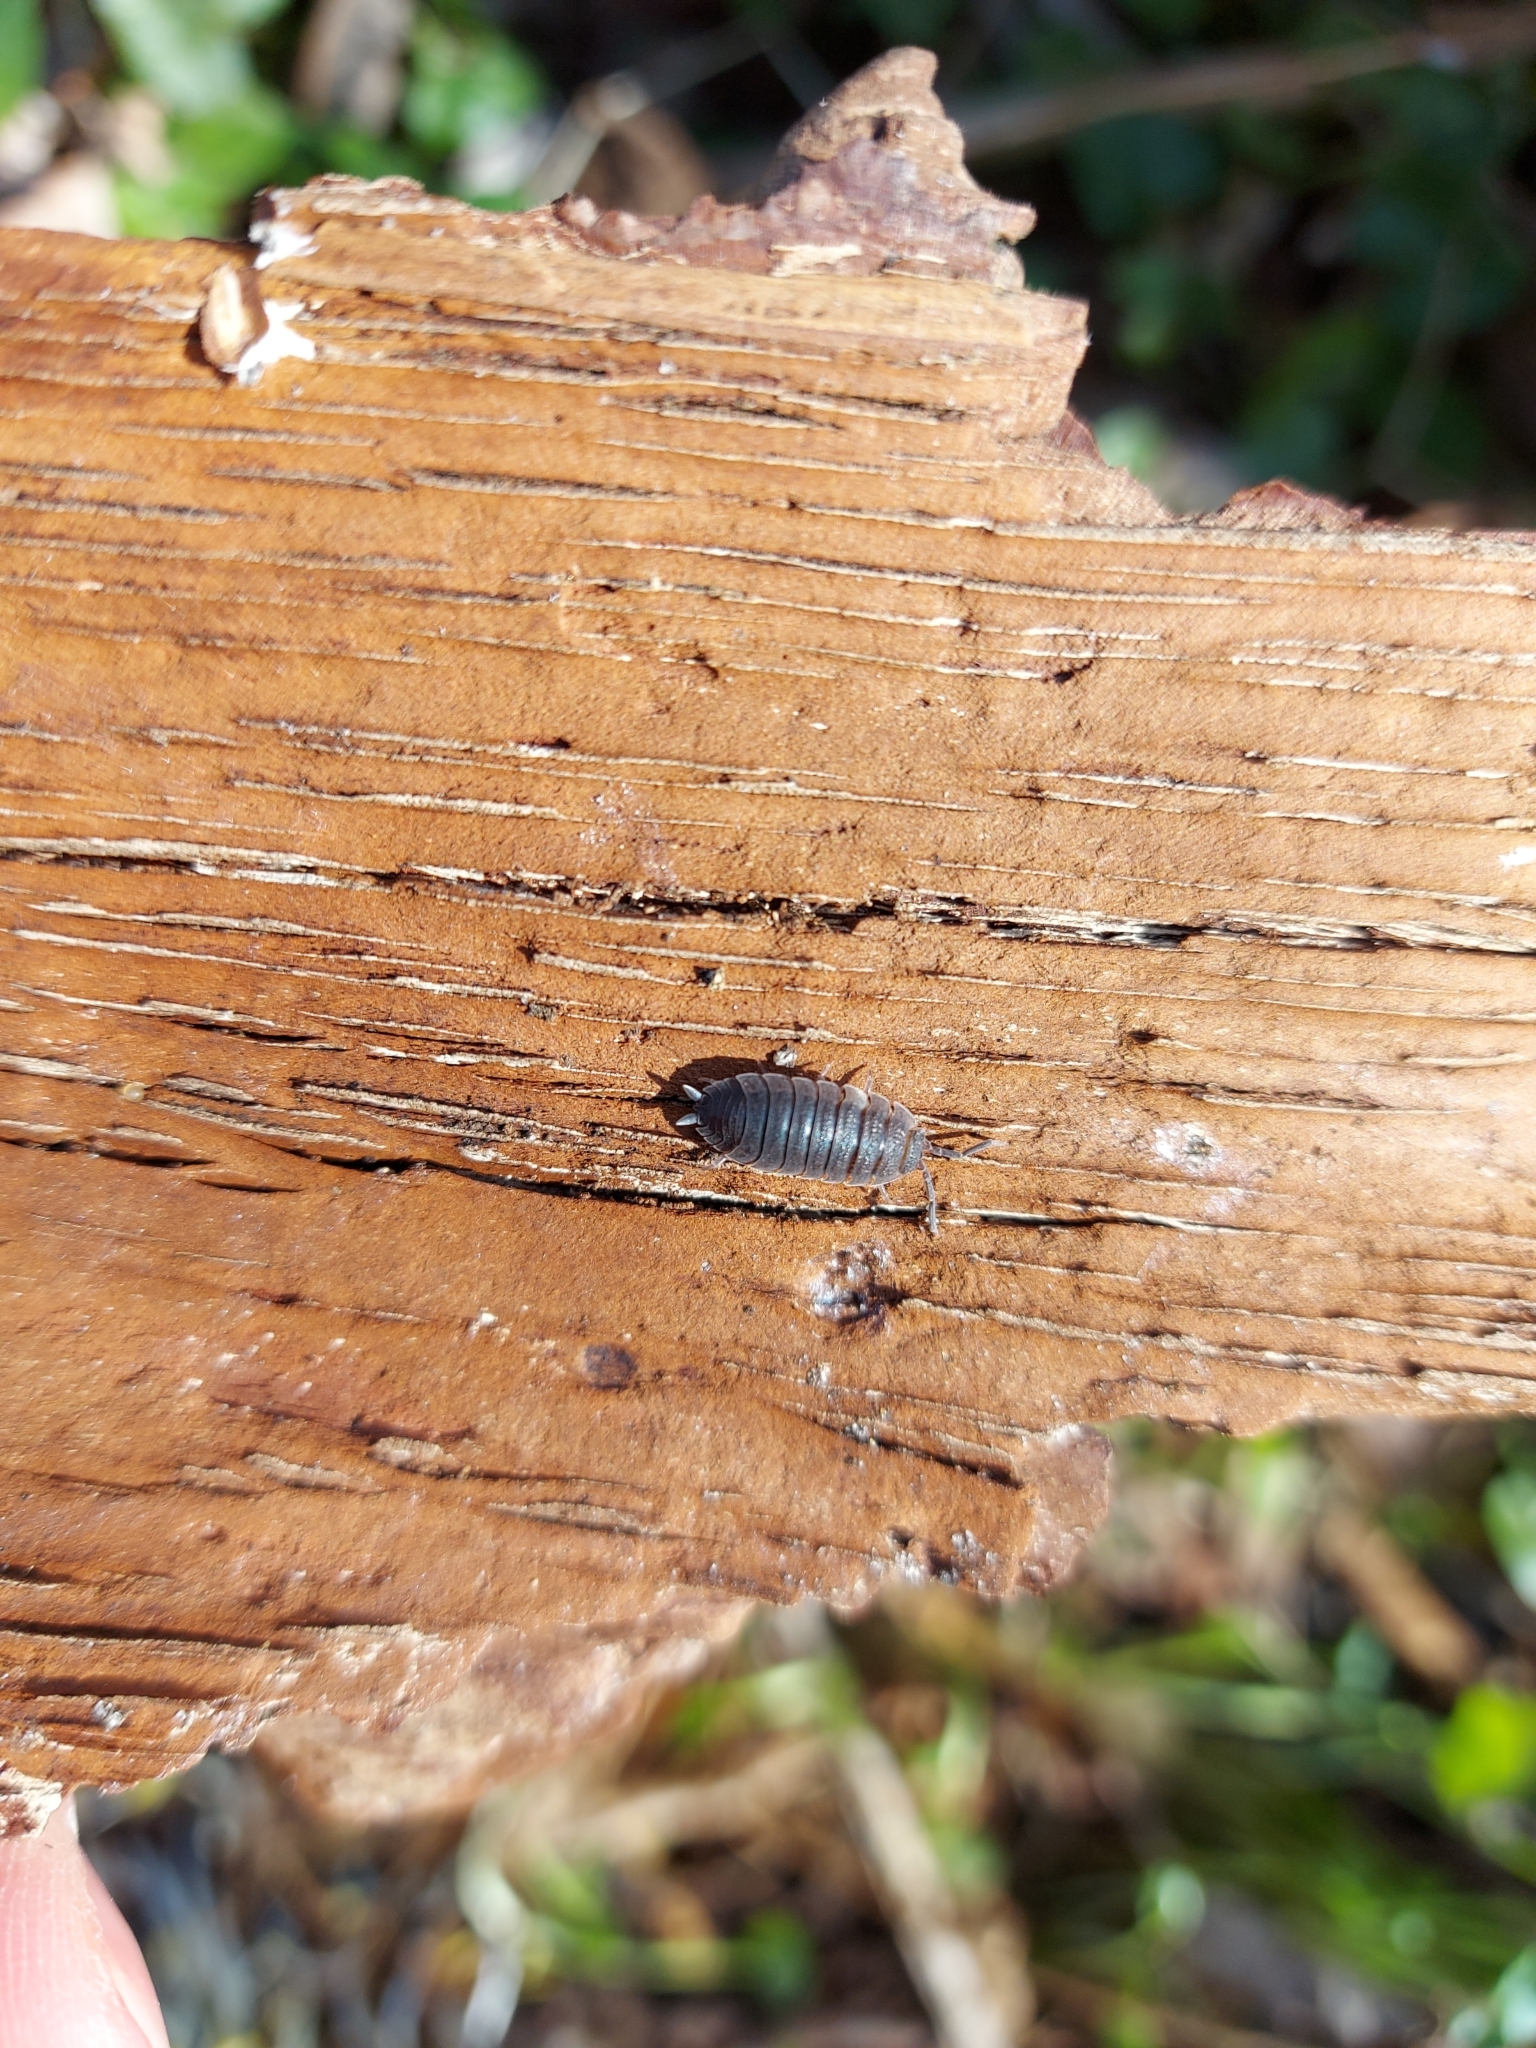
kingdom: Animalia
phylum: Arthropoda
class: Malacostraca
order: Isopoda
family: Porcellionidae
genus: Porcellio
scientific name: Porcellio scaber
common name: Common rough woodlouse
